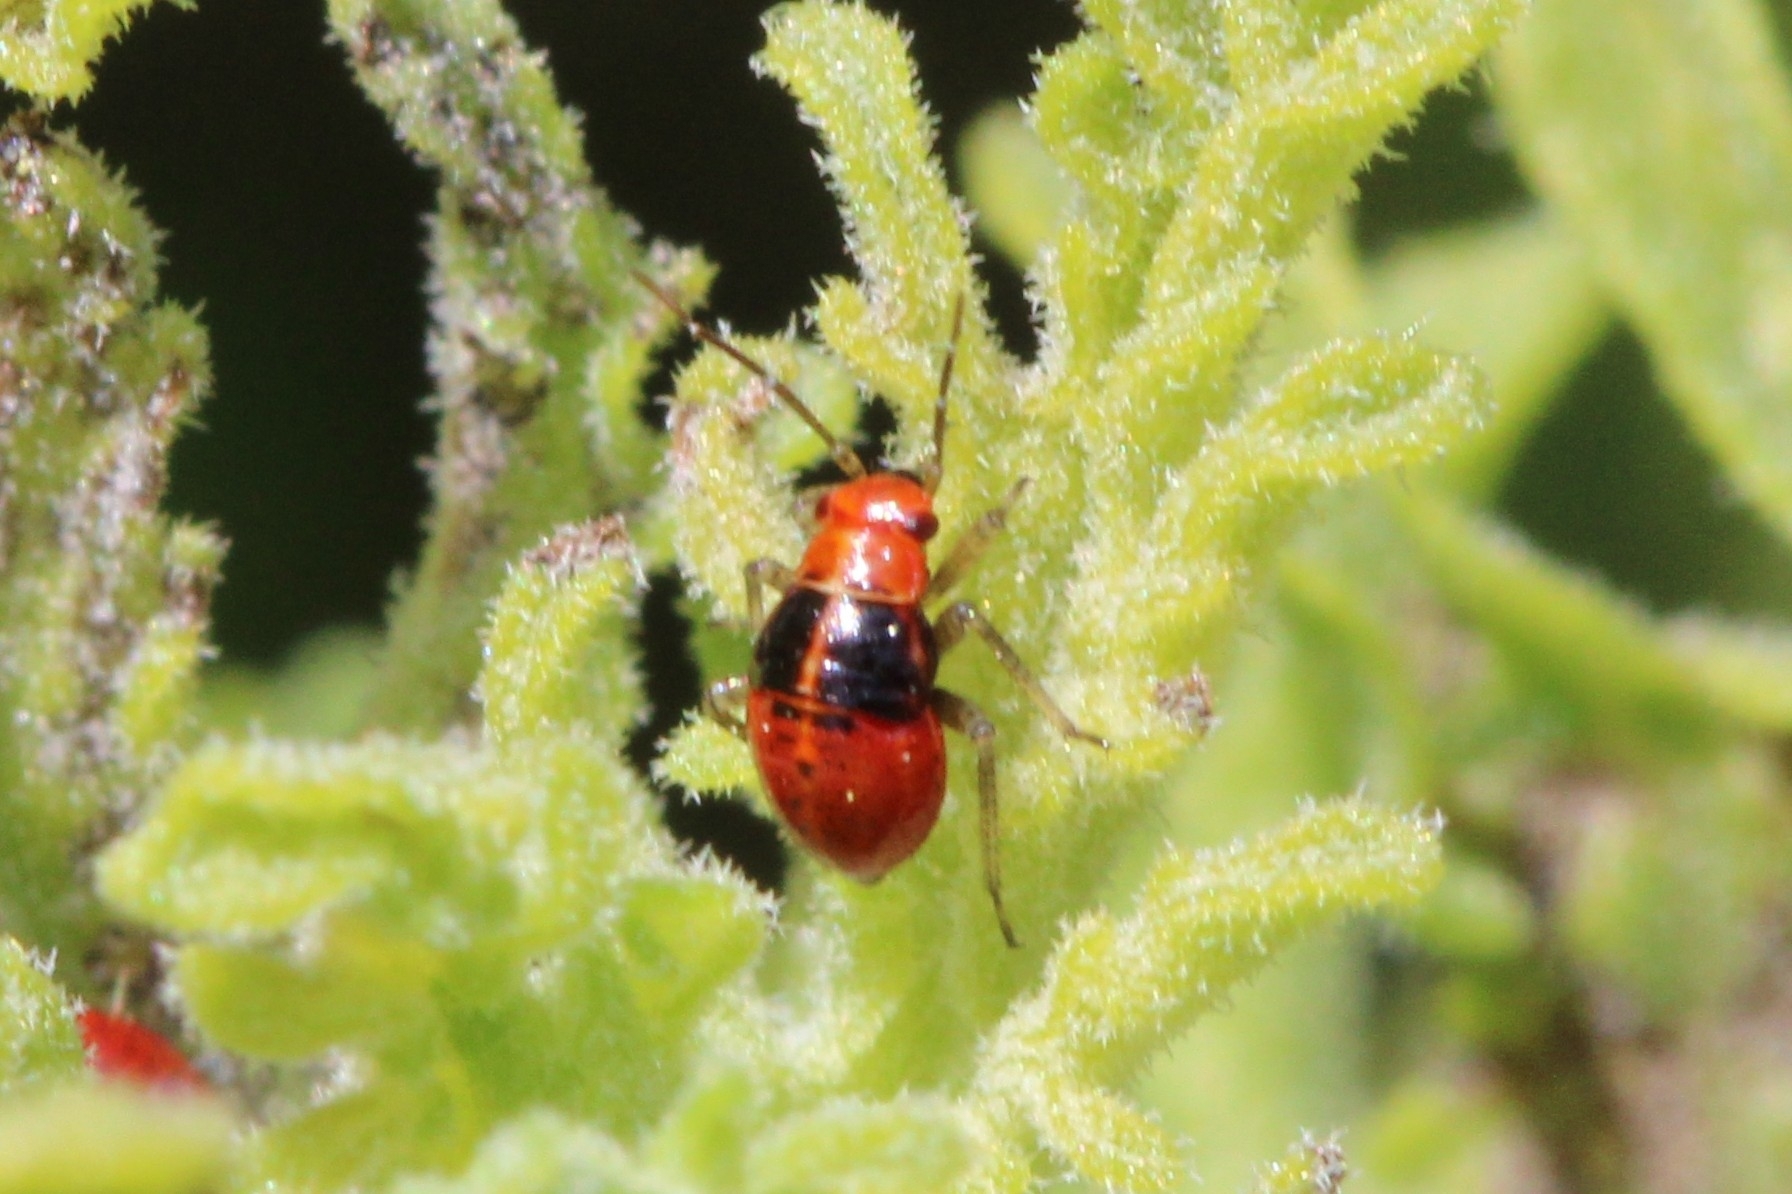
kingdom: Animalia
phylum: Arthropoda
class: Insecta
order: Hemiptera
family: Miridae
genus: Poecilocapsus
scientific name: Poecilocapsus lineatus
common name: Four-lined plant bug
